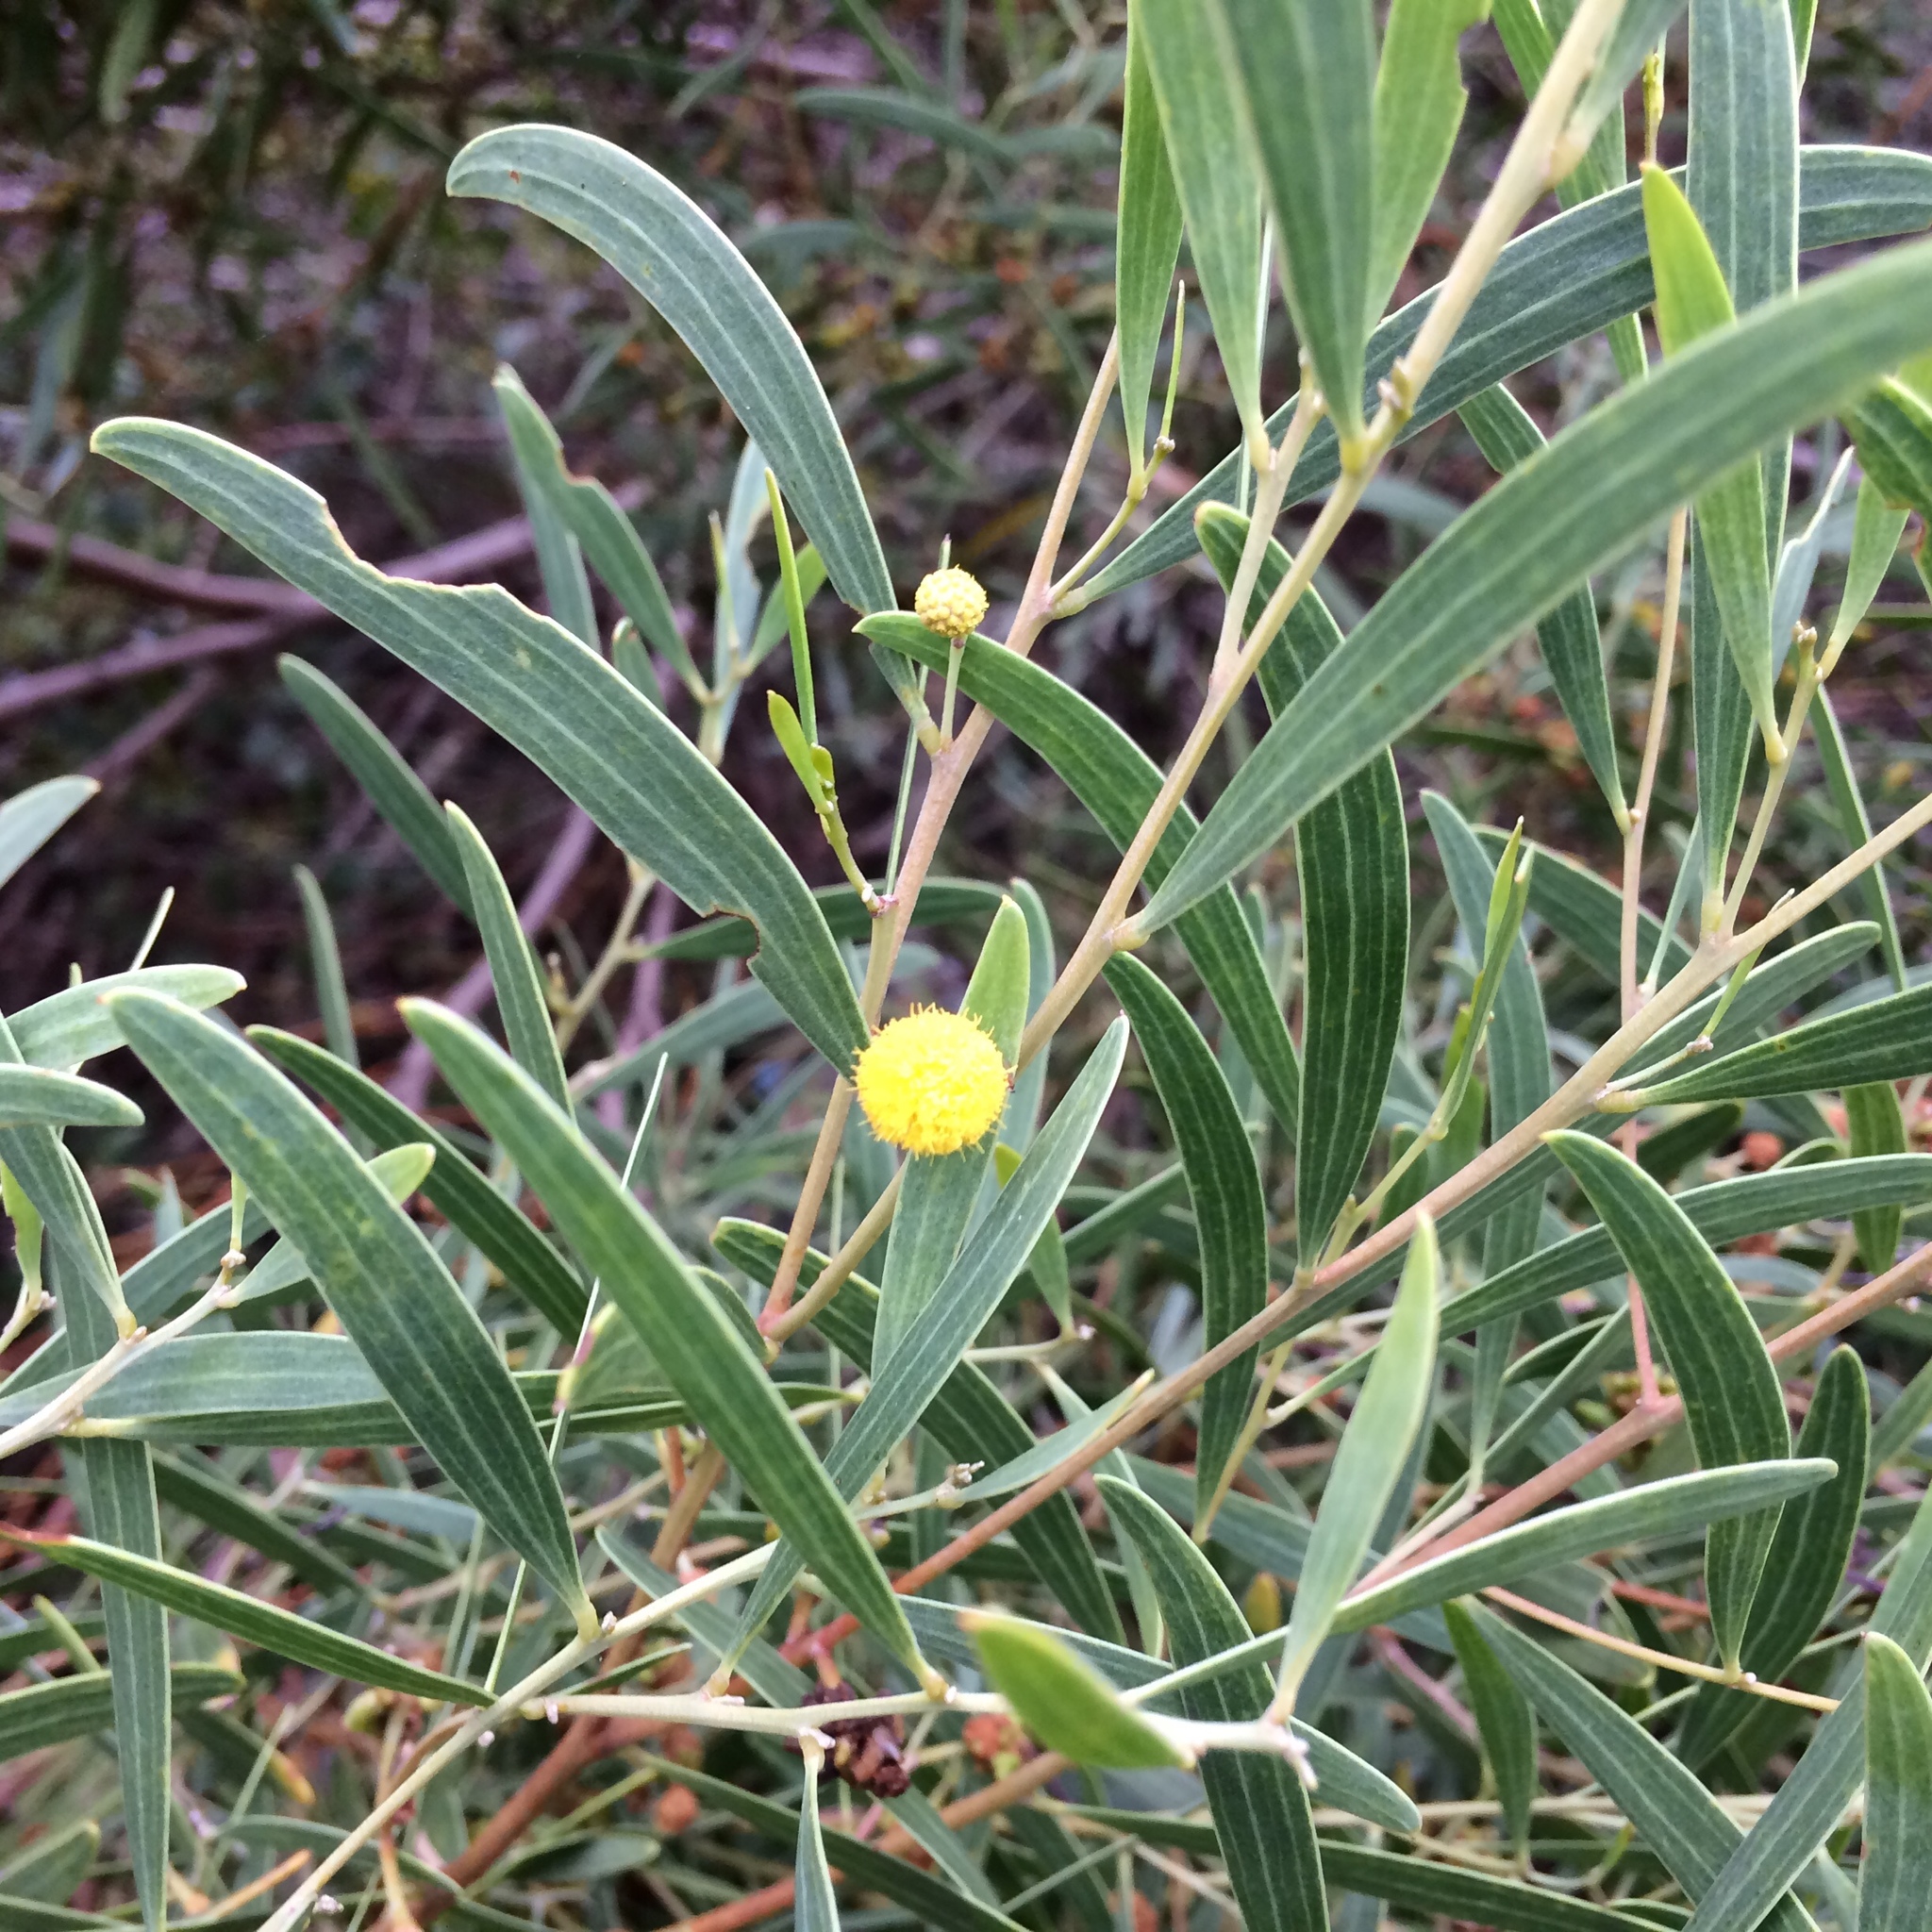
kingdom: Plantae
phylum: Tracheophyta
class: Magnoliopsida
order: Fabales
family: Fabaceae
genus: Acacia
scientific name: Acacia cyclops
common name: Coastal wattle
